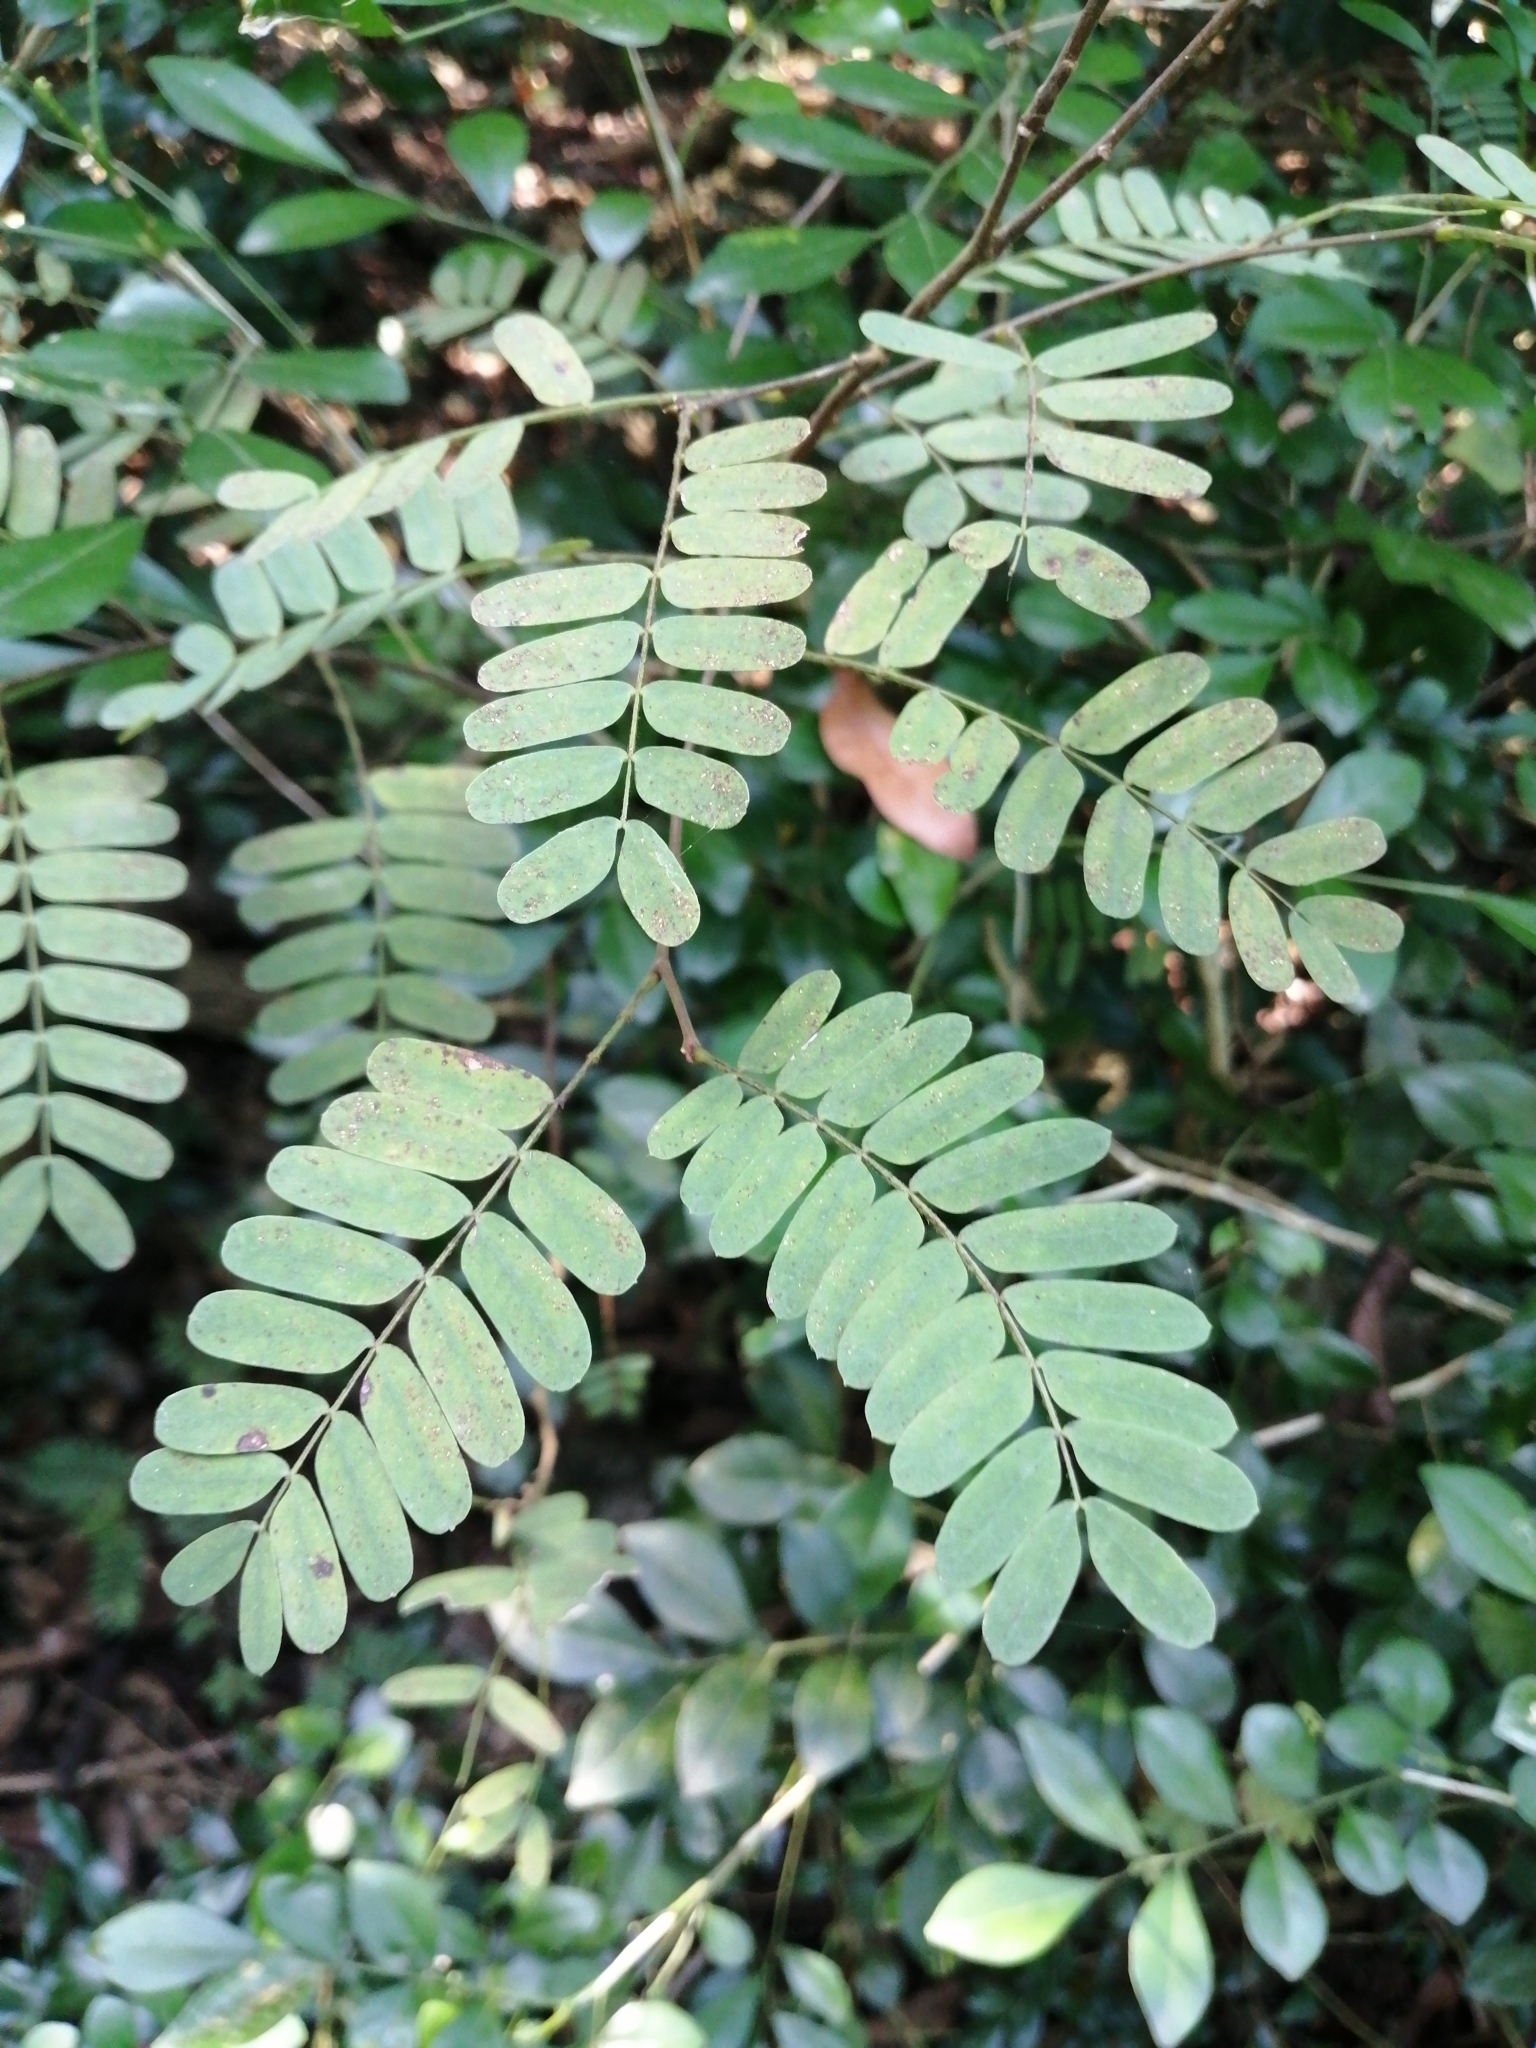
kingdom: Plantae
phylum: Tracheophyta
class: Magnoliopsida
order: Fabales
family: Fabaceae
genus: Abrus
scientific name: Abrus precatorius
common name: Rosarypea
